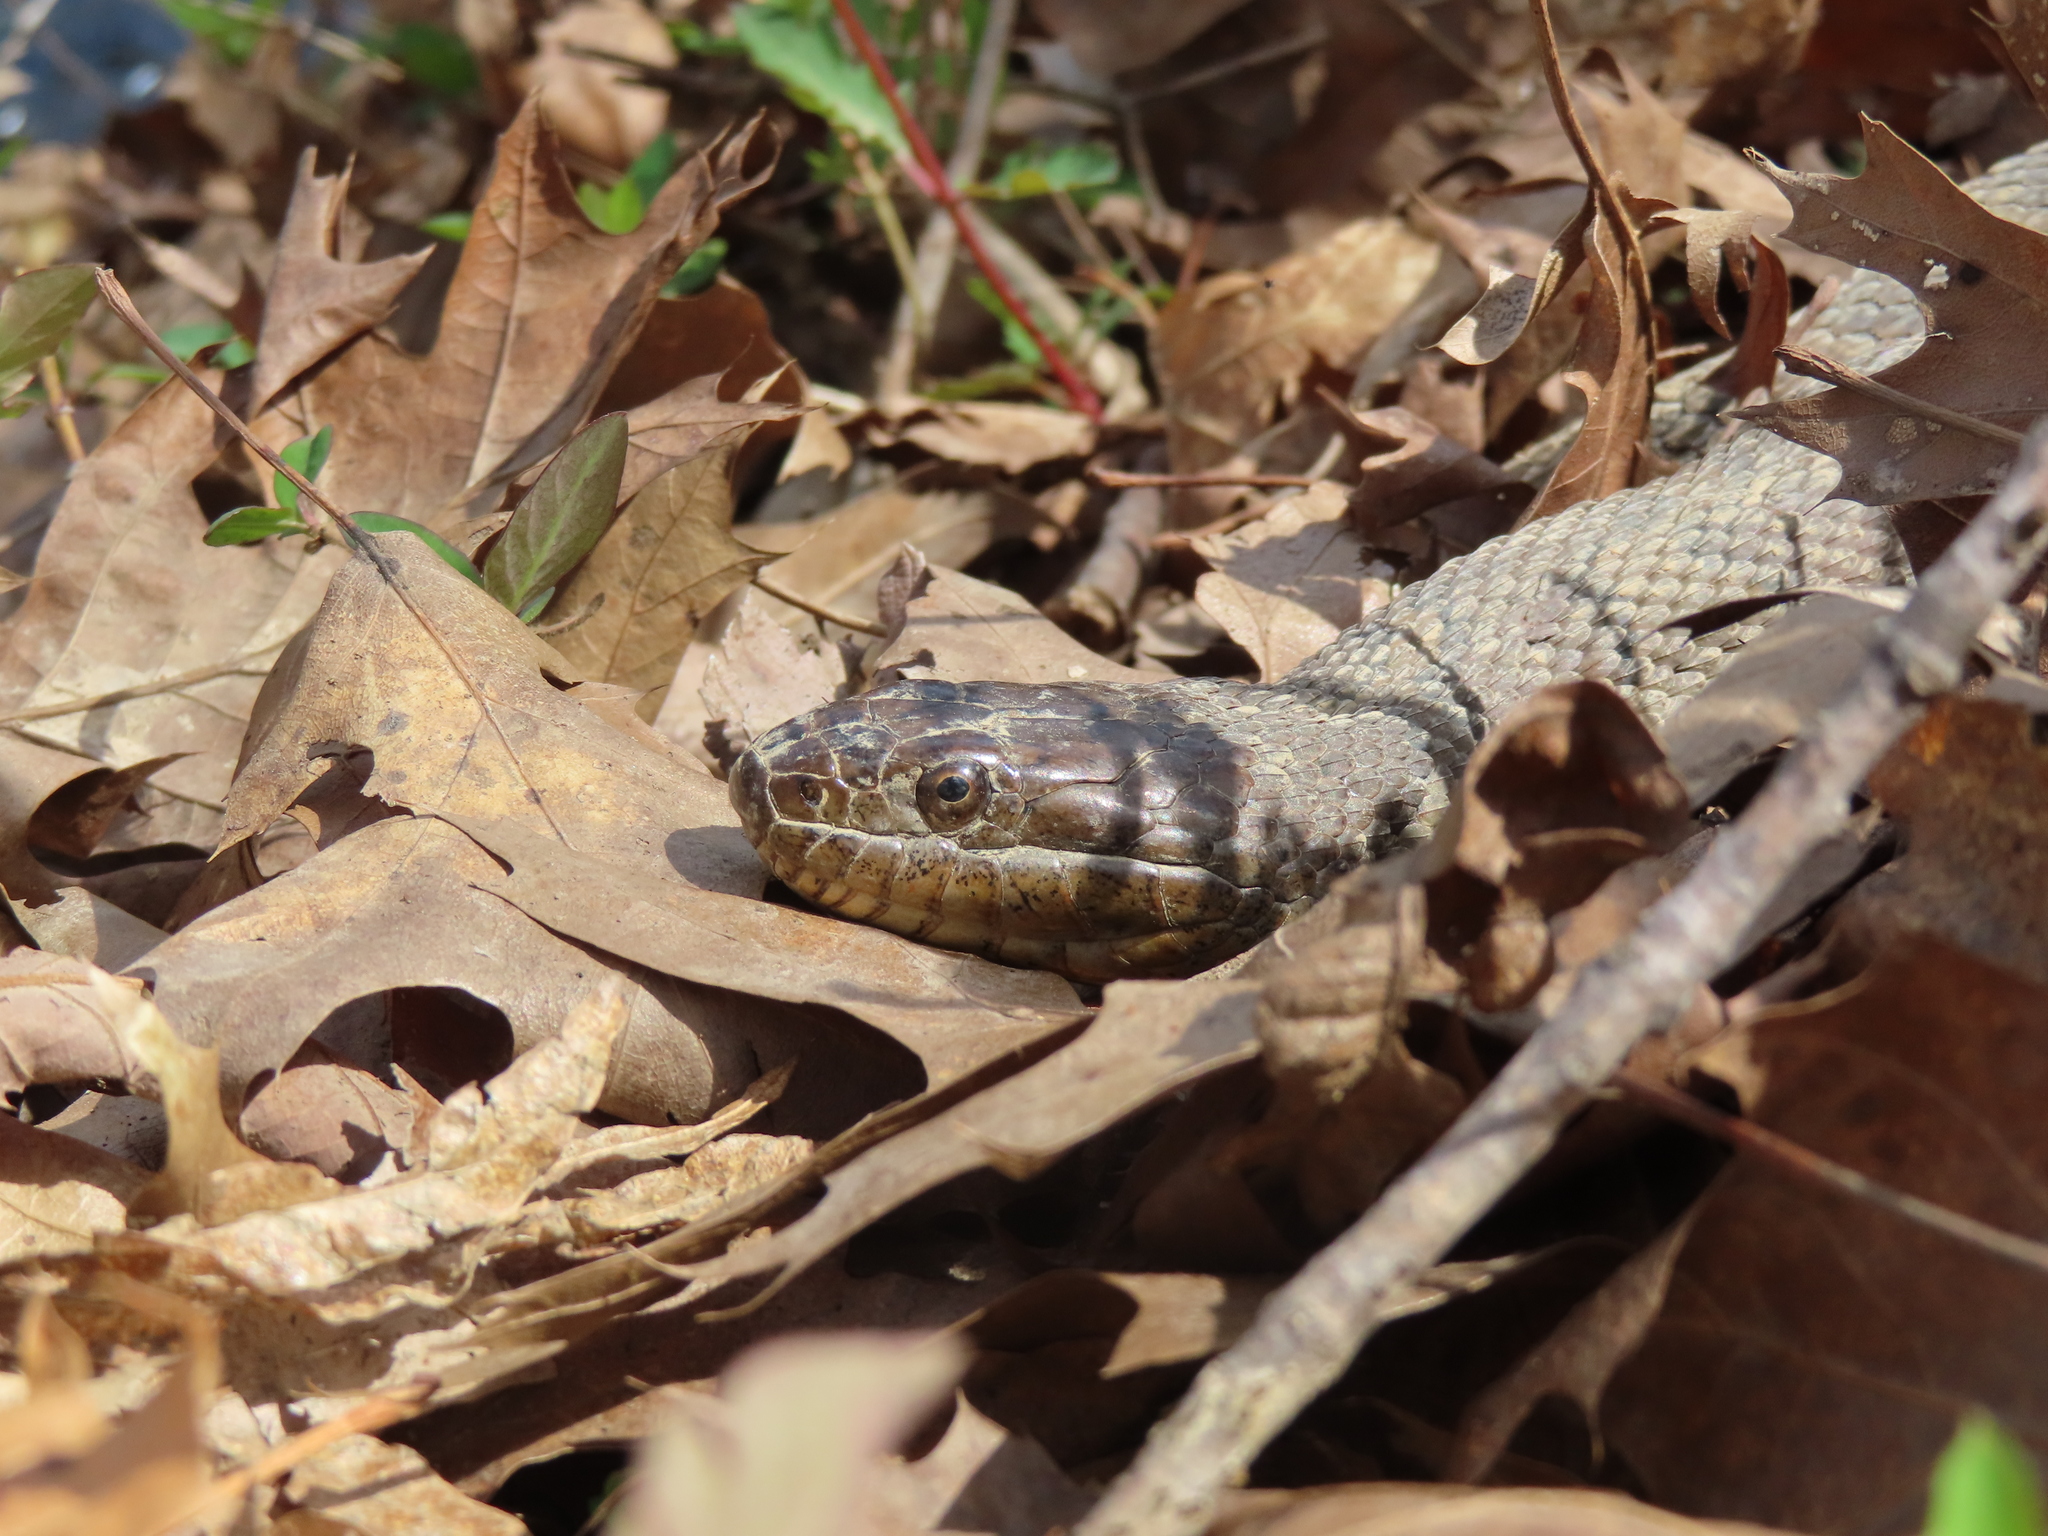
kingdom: Animalia
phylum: Chordata
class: Squamata
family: Colubridae
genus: Nerodia
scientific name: Nerodia sipedon
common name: Northern water snake
